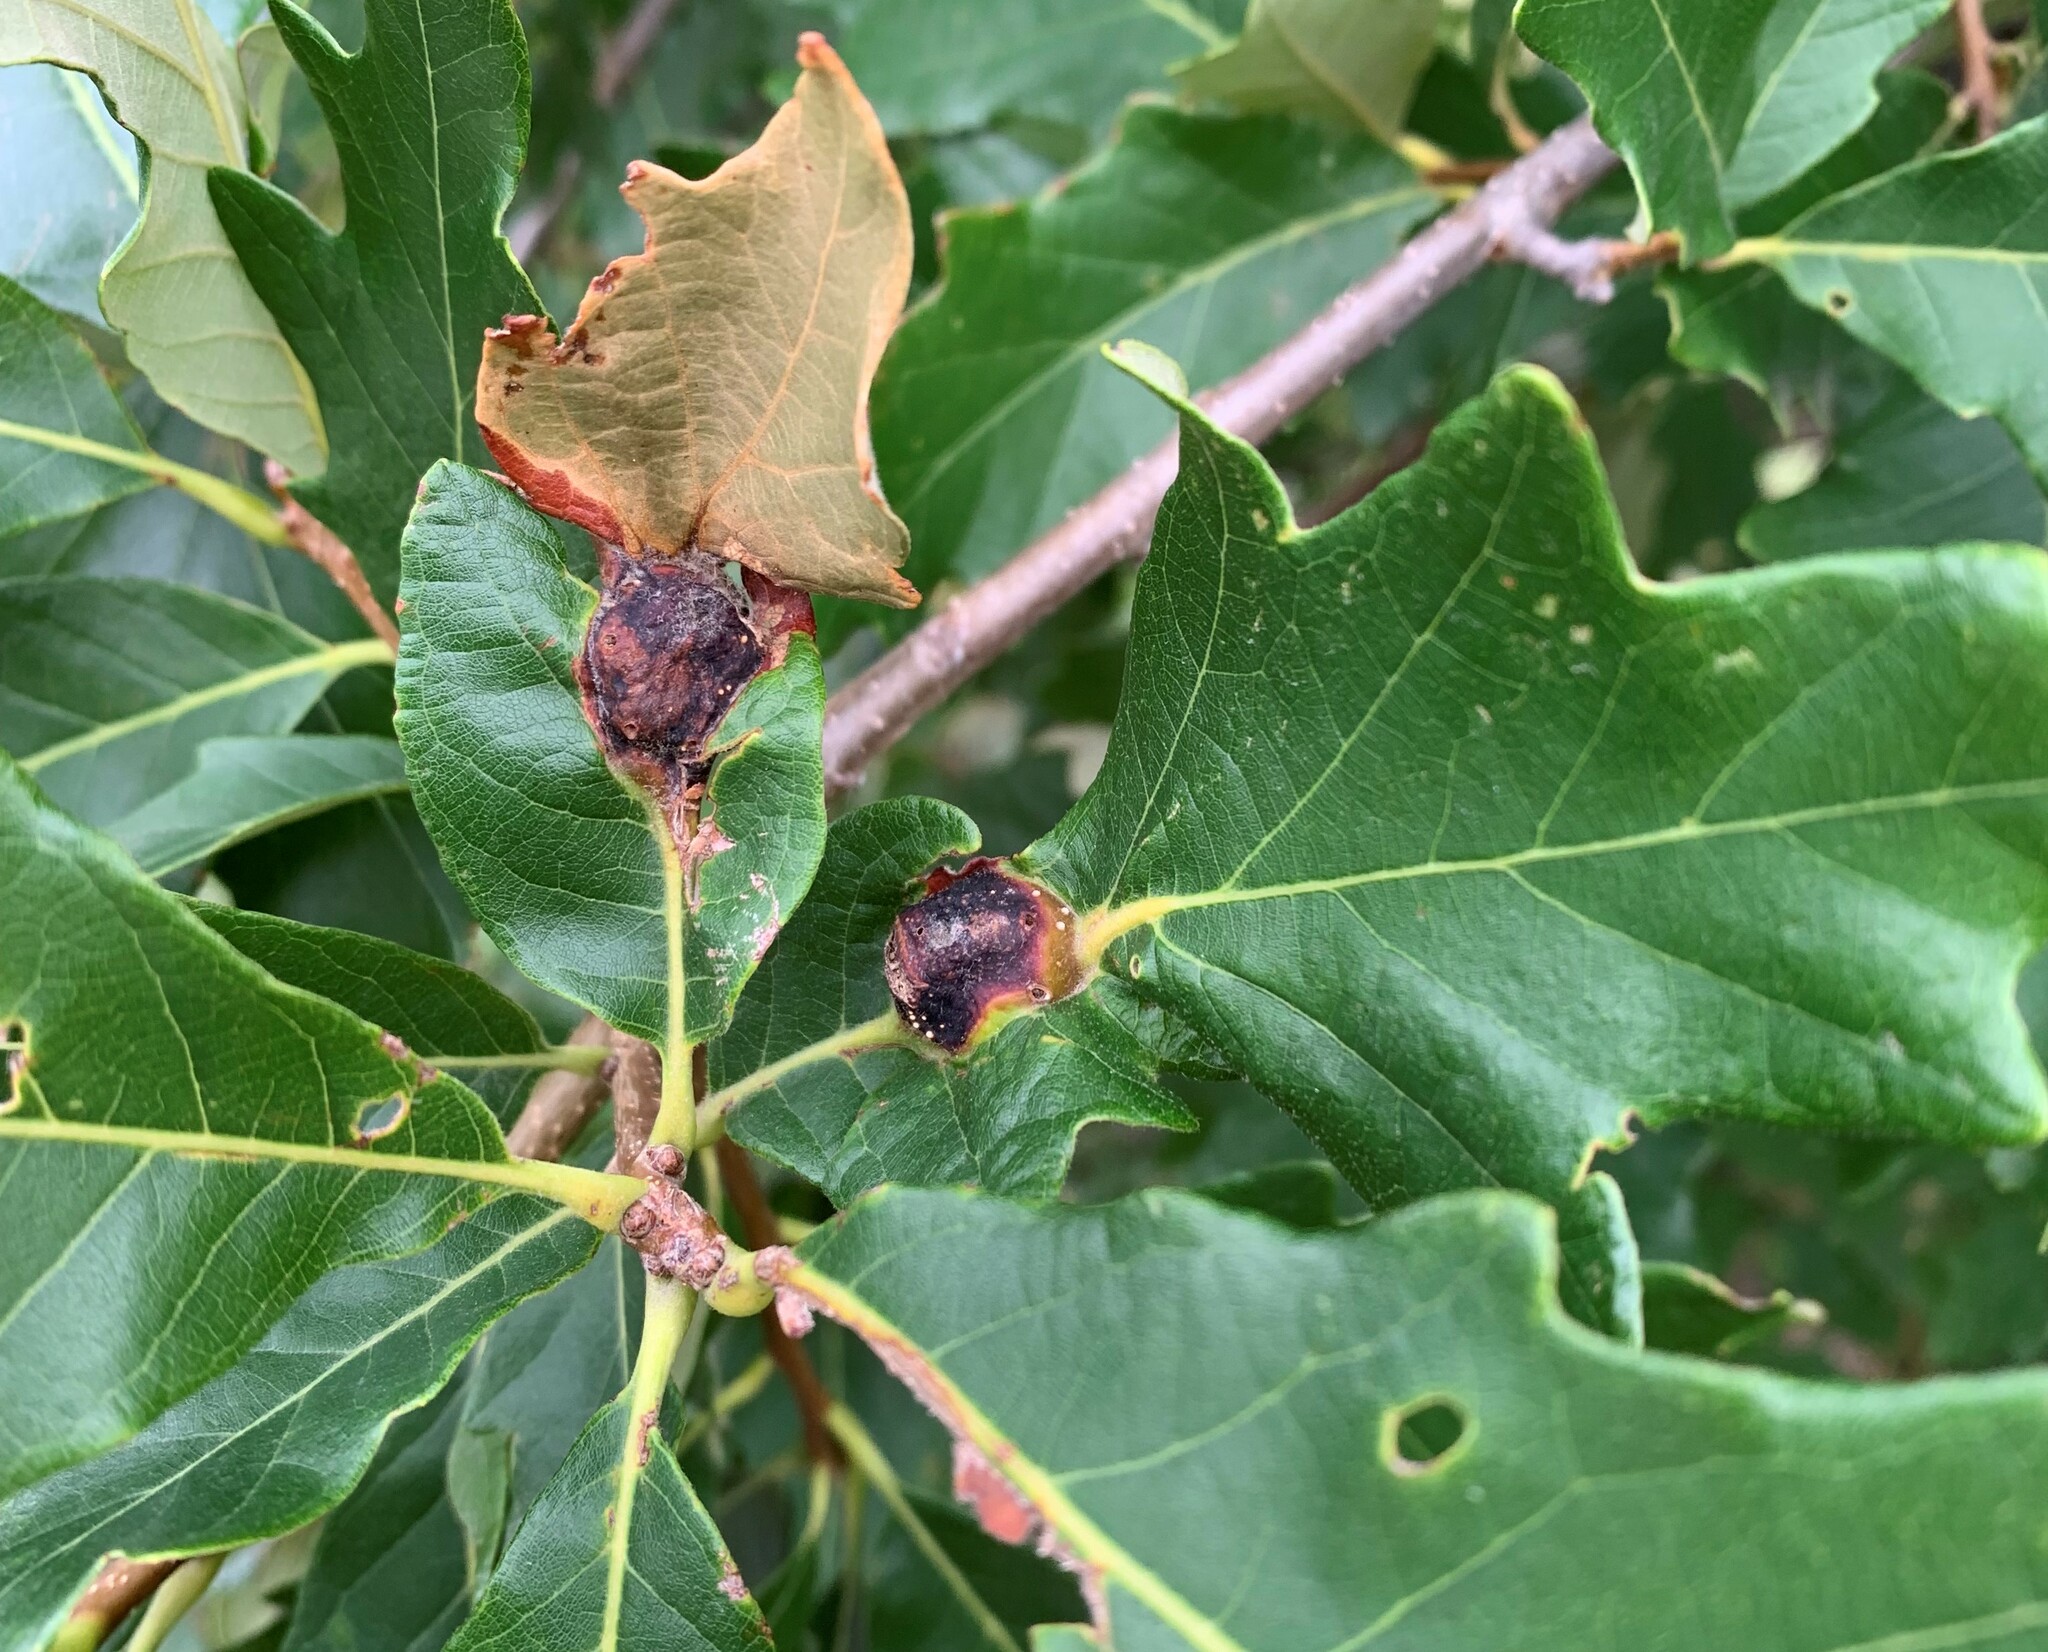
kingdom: Animalia
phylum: Arthropoda
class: Insecta
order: Hymenoptera
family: Cynipidae
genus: Andricus
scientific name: Andricus
